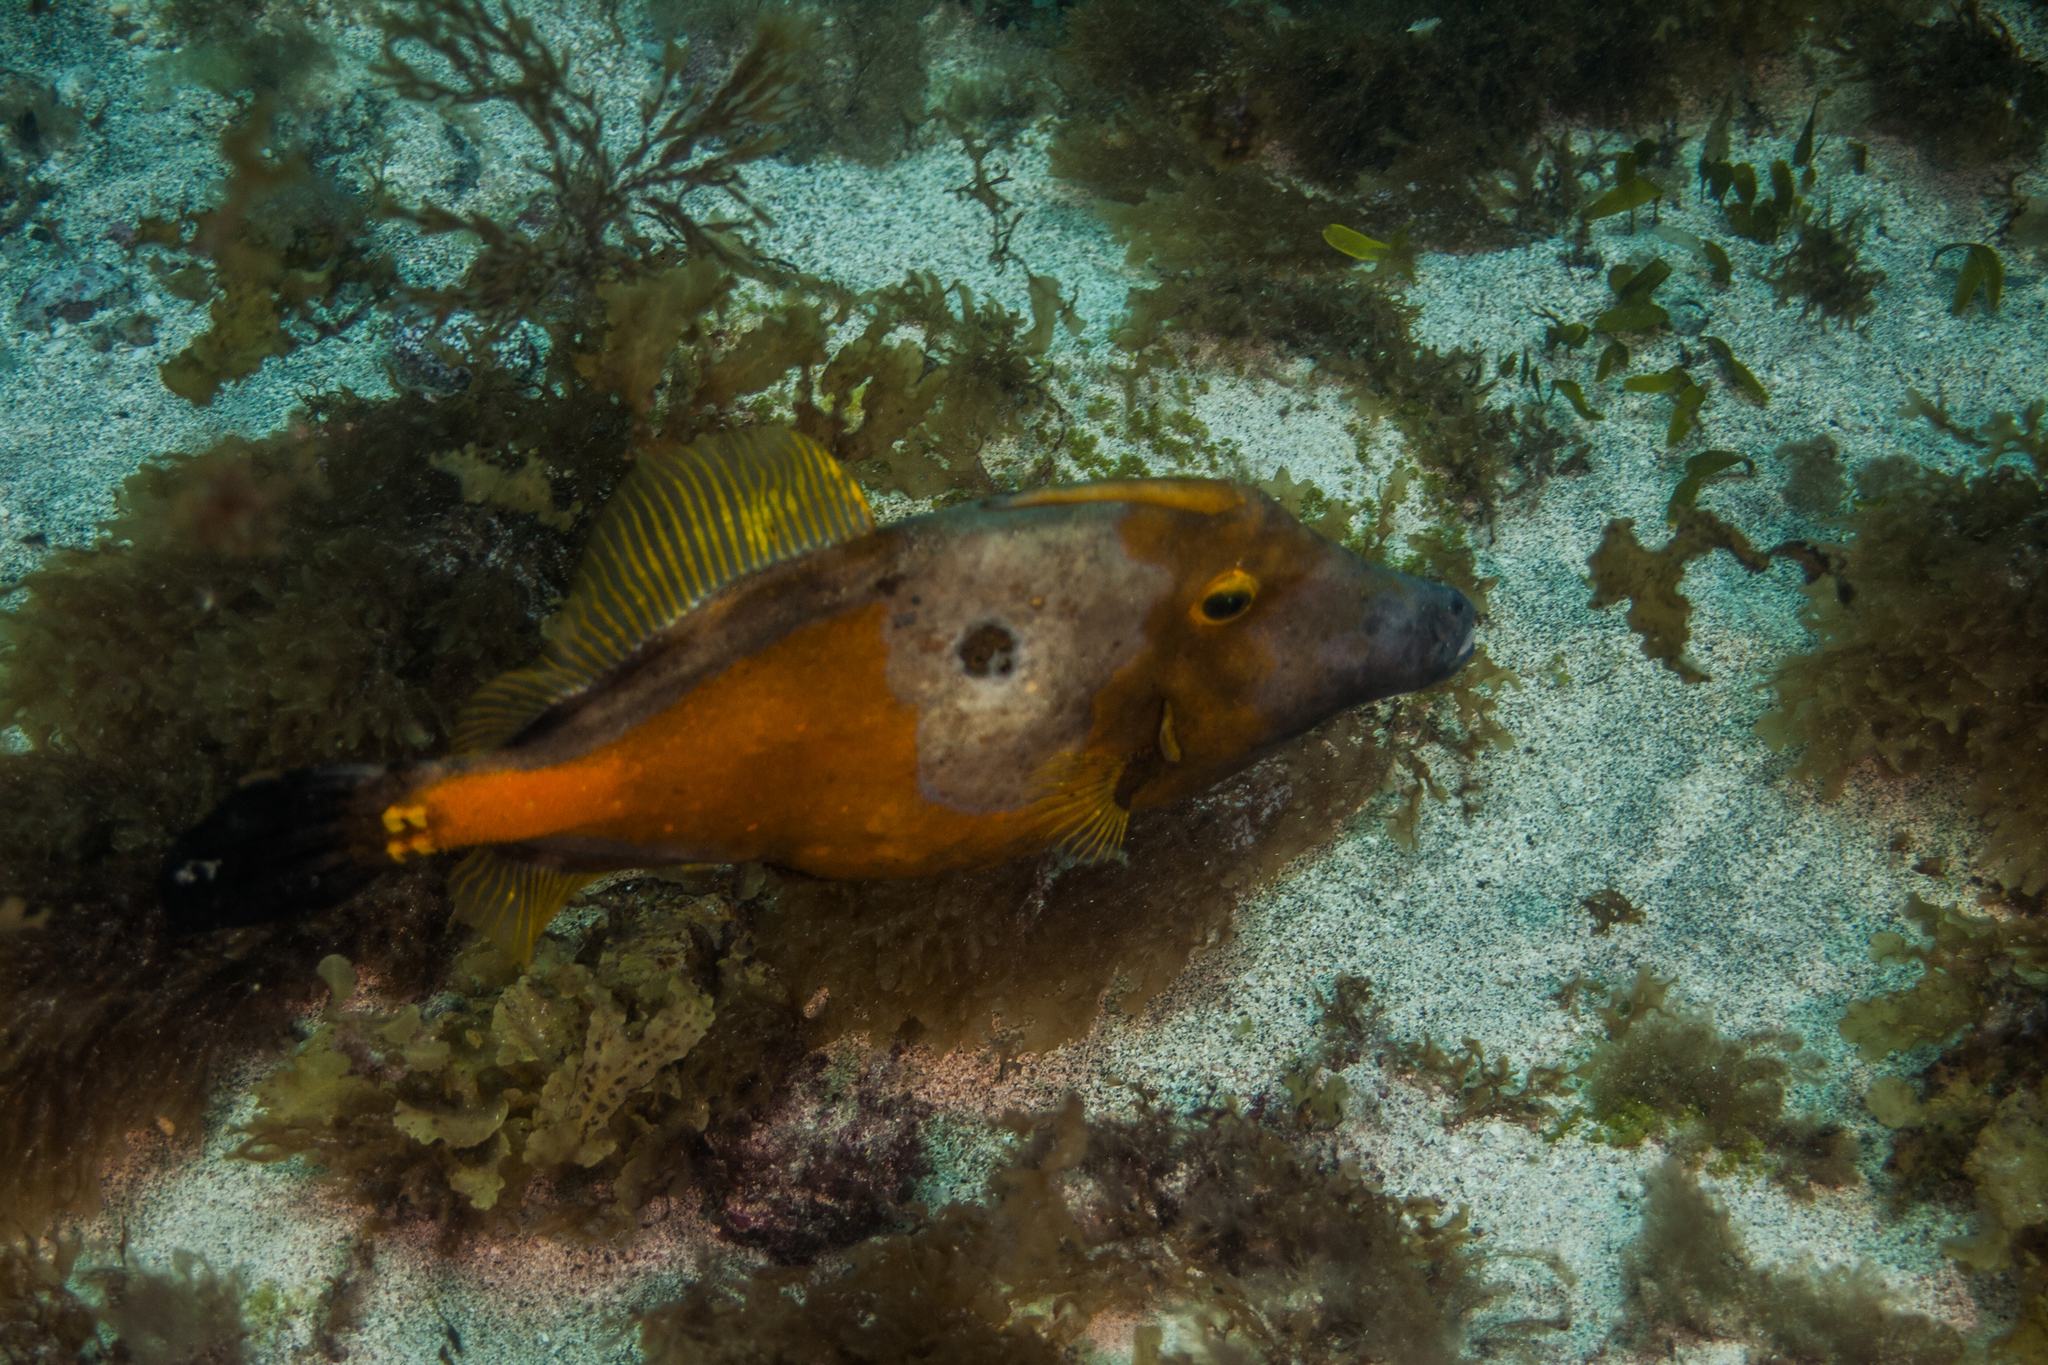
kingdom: Animalia
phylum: Chordata
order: Tetraodontiformes
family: Monacanthidae
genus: Cantherhines
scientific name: Cantherhines macrocerus
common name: Whitespotted filefish
